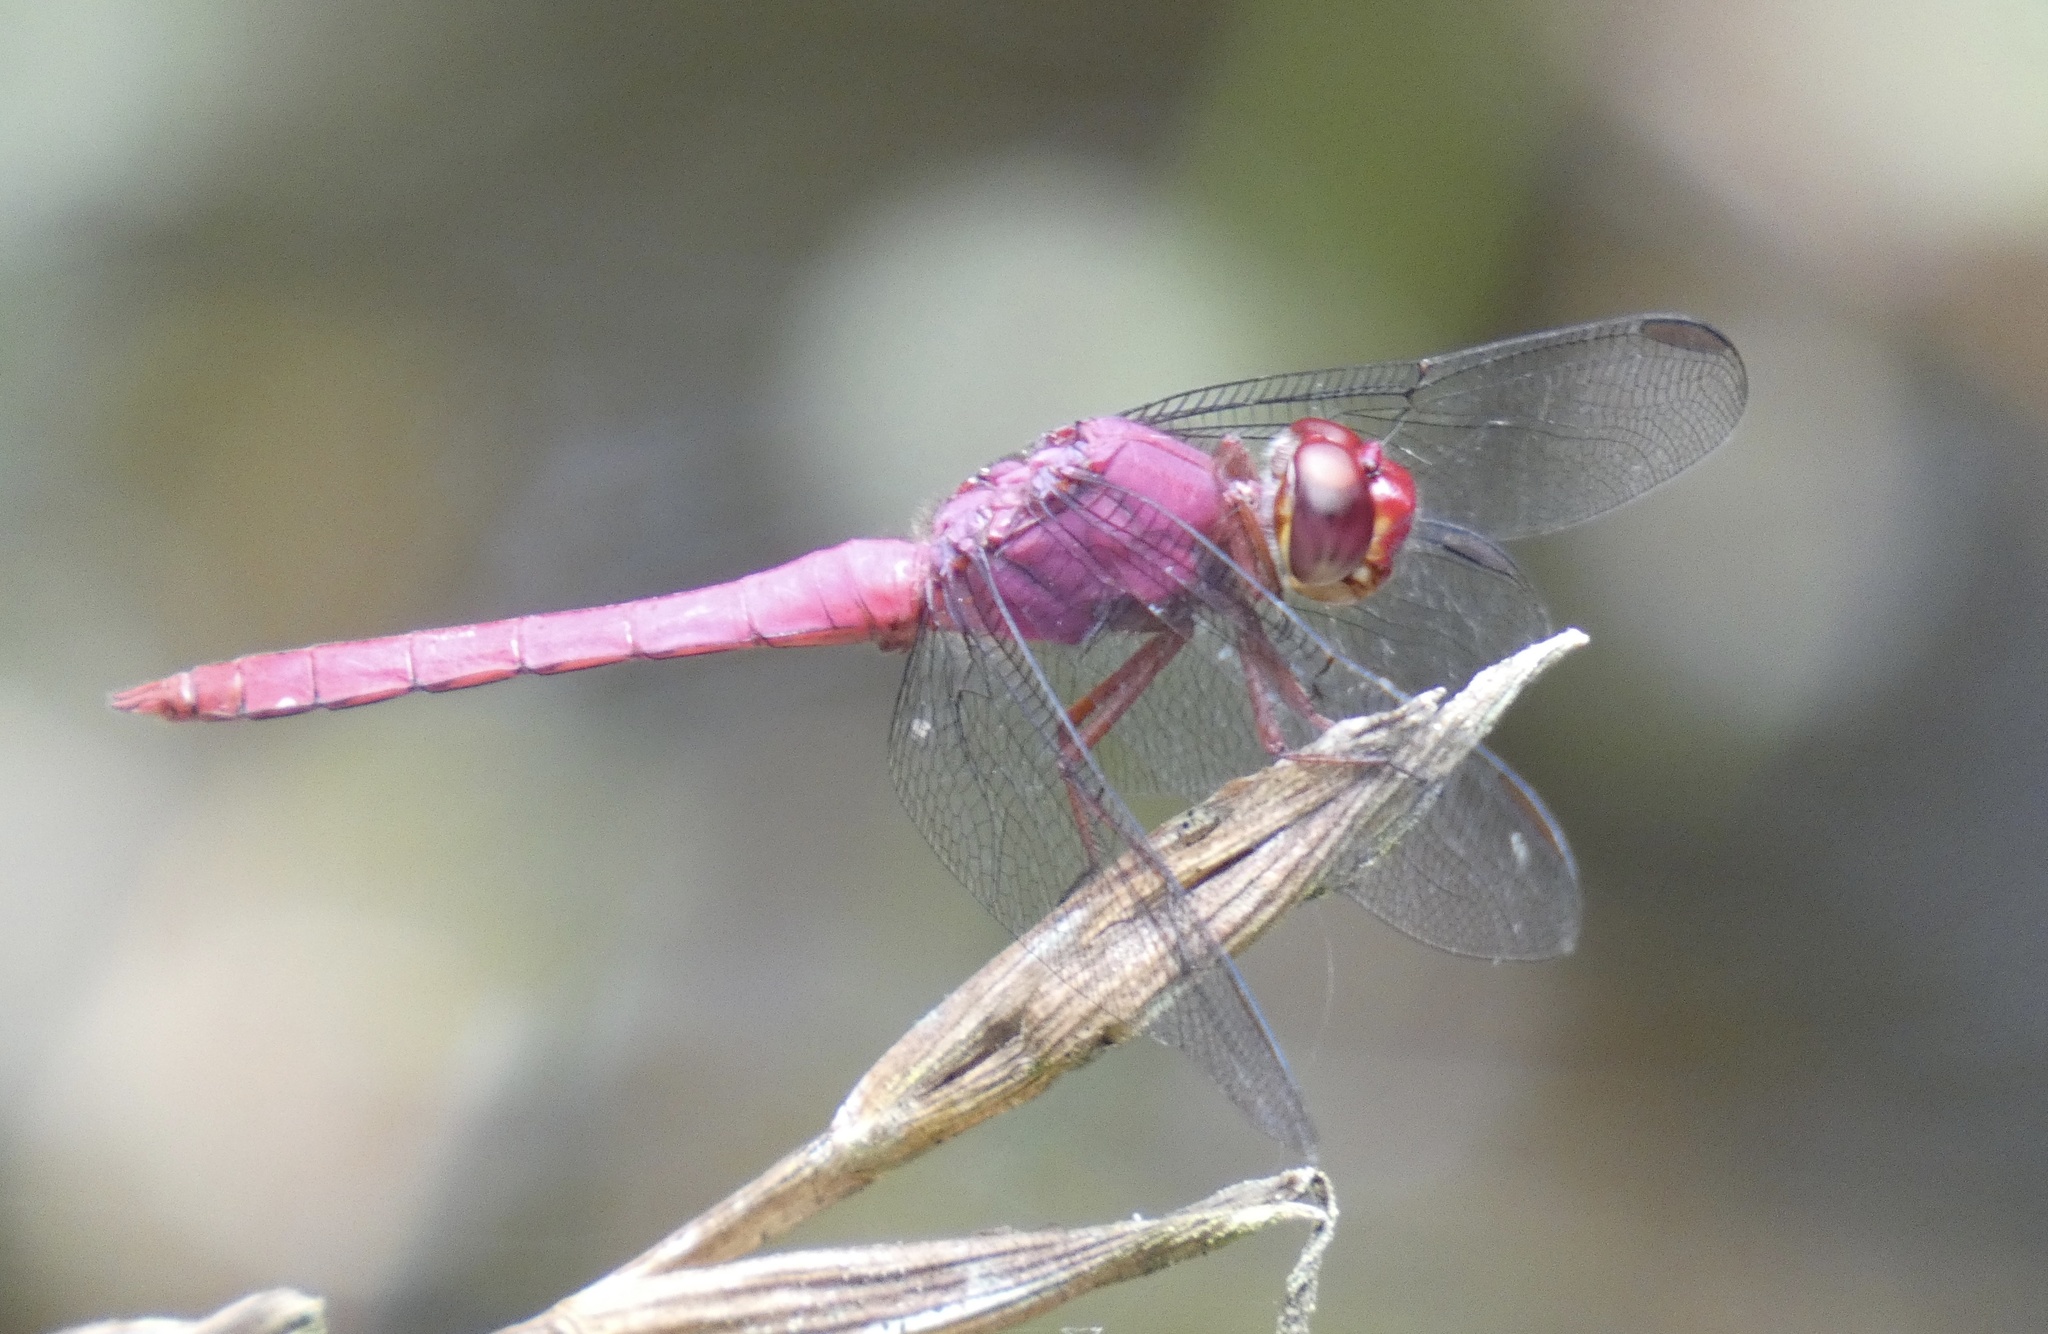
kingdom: Animalia
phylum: Arthropoda
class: Insecta
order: Odonata
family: Libellulidae
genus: Orthemis
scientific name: Orthemis discolor
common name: Carmine skimmer
